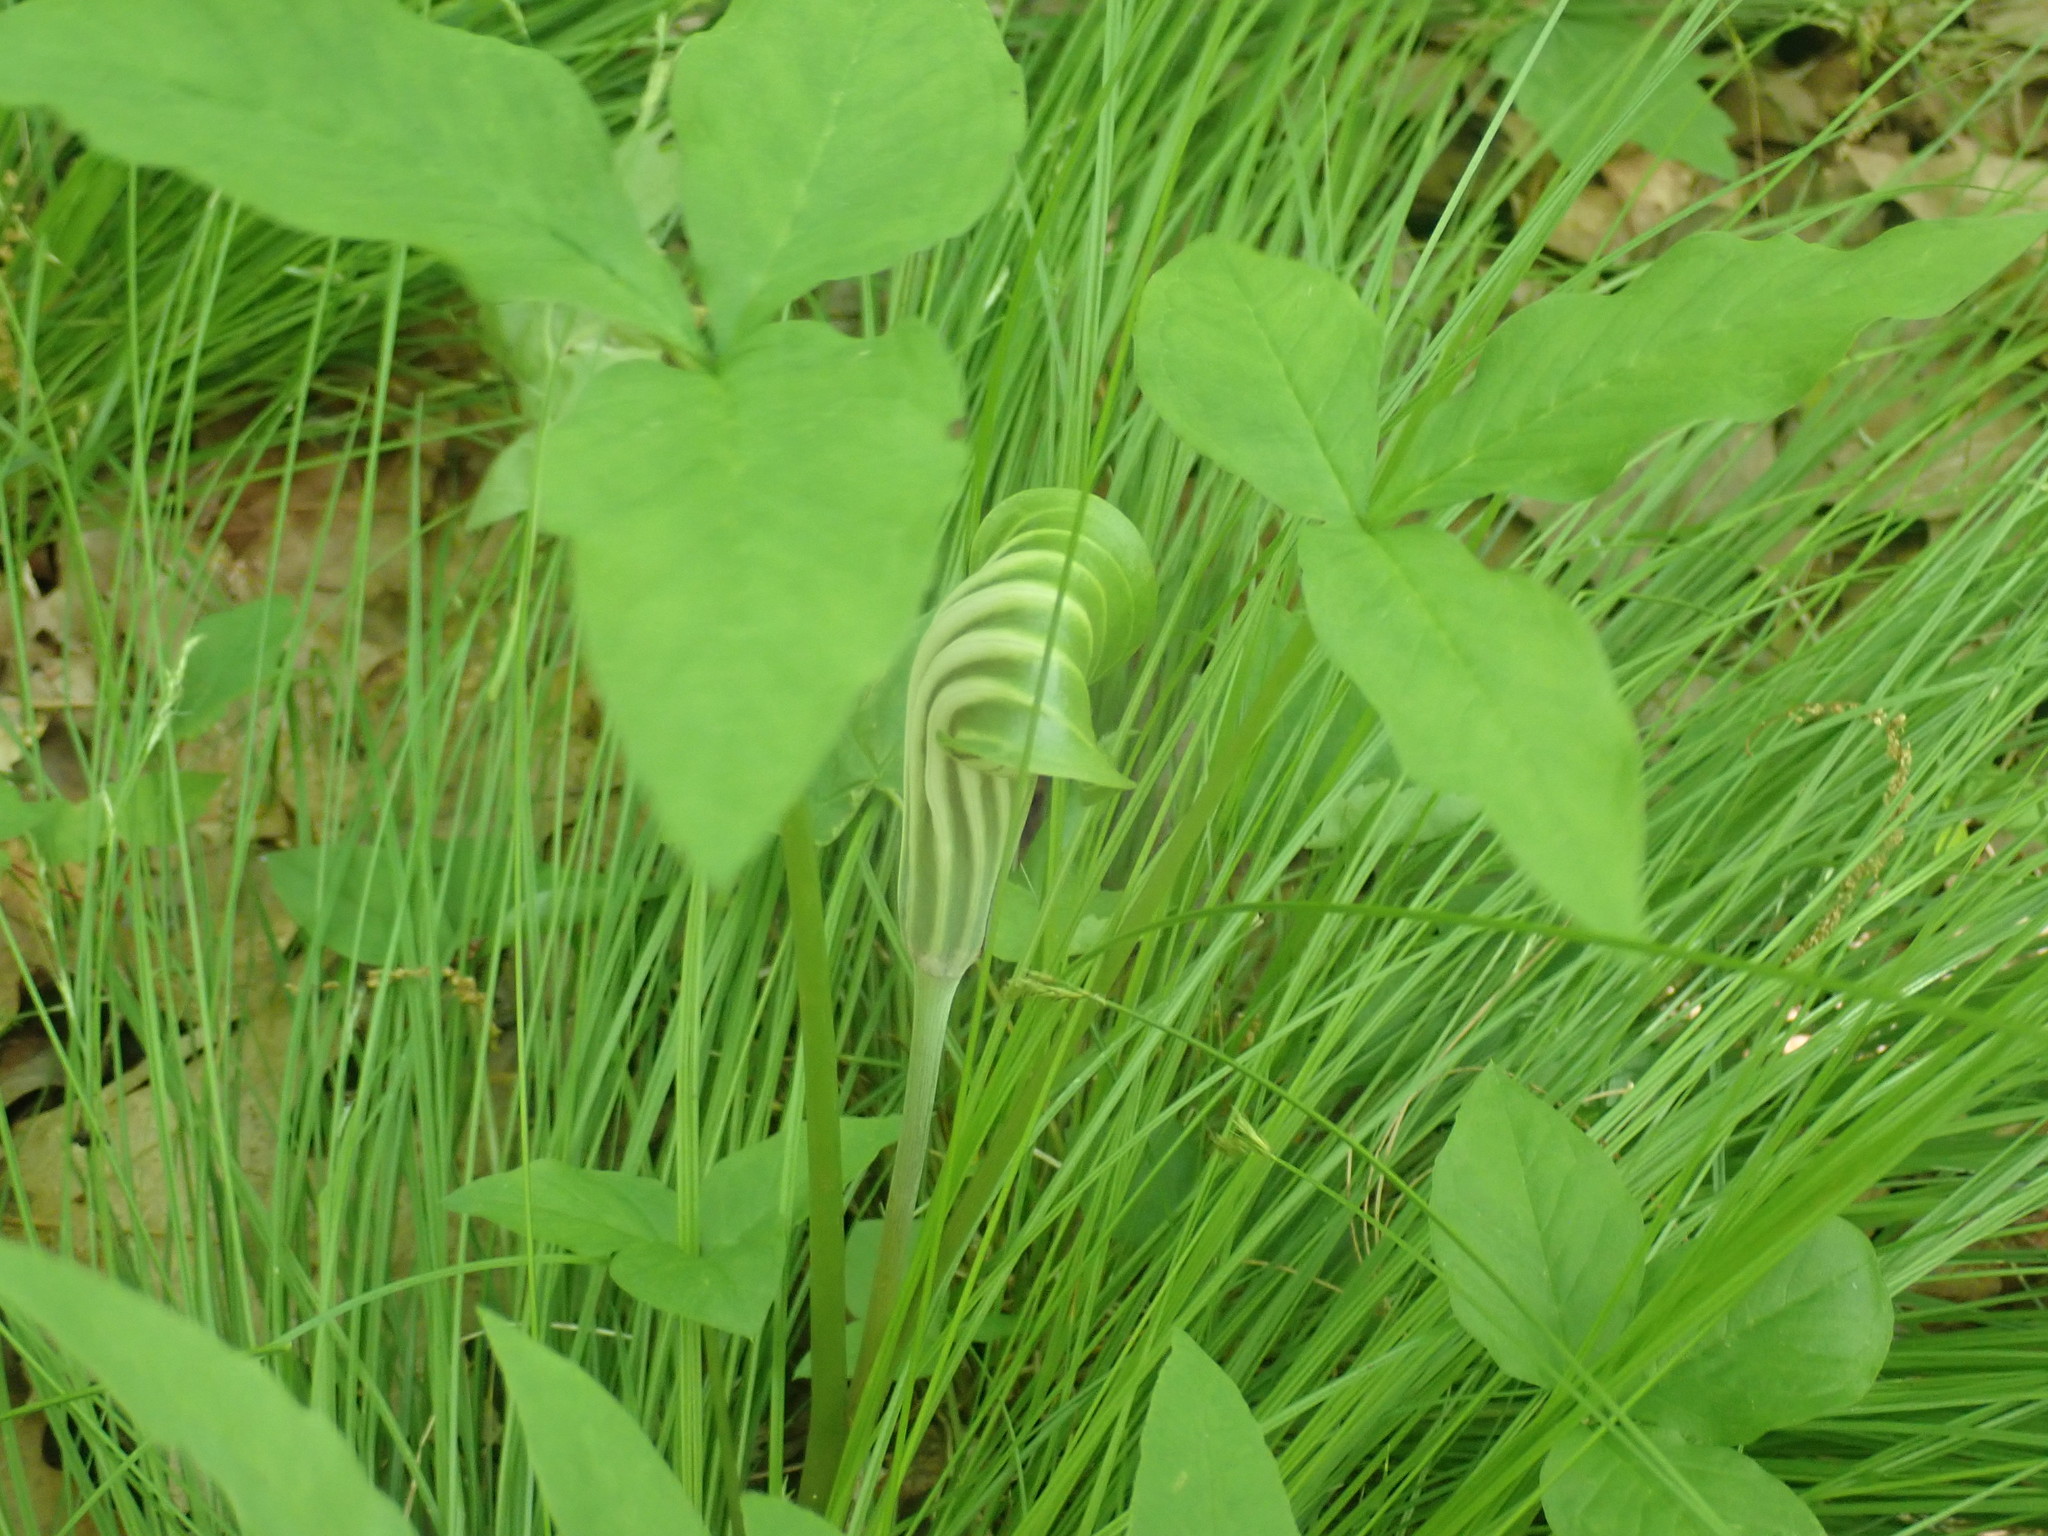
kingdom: Plantae
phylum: Tracheophyta
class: Liliopsida
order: Alismatales
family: Araceae
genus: Arisaema
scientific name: Arisaema stewardsonii
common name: Swamp jack-in-the-pulpit
